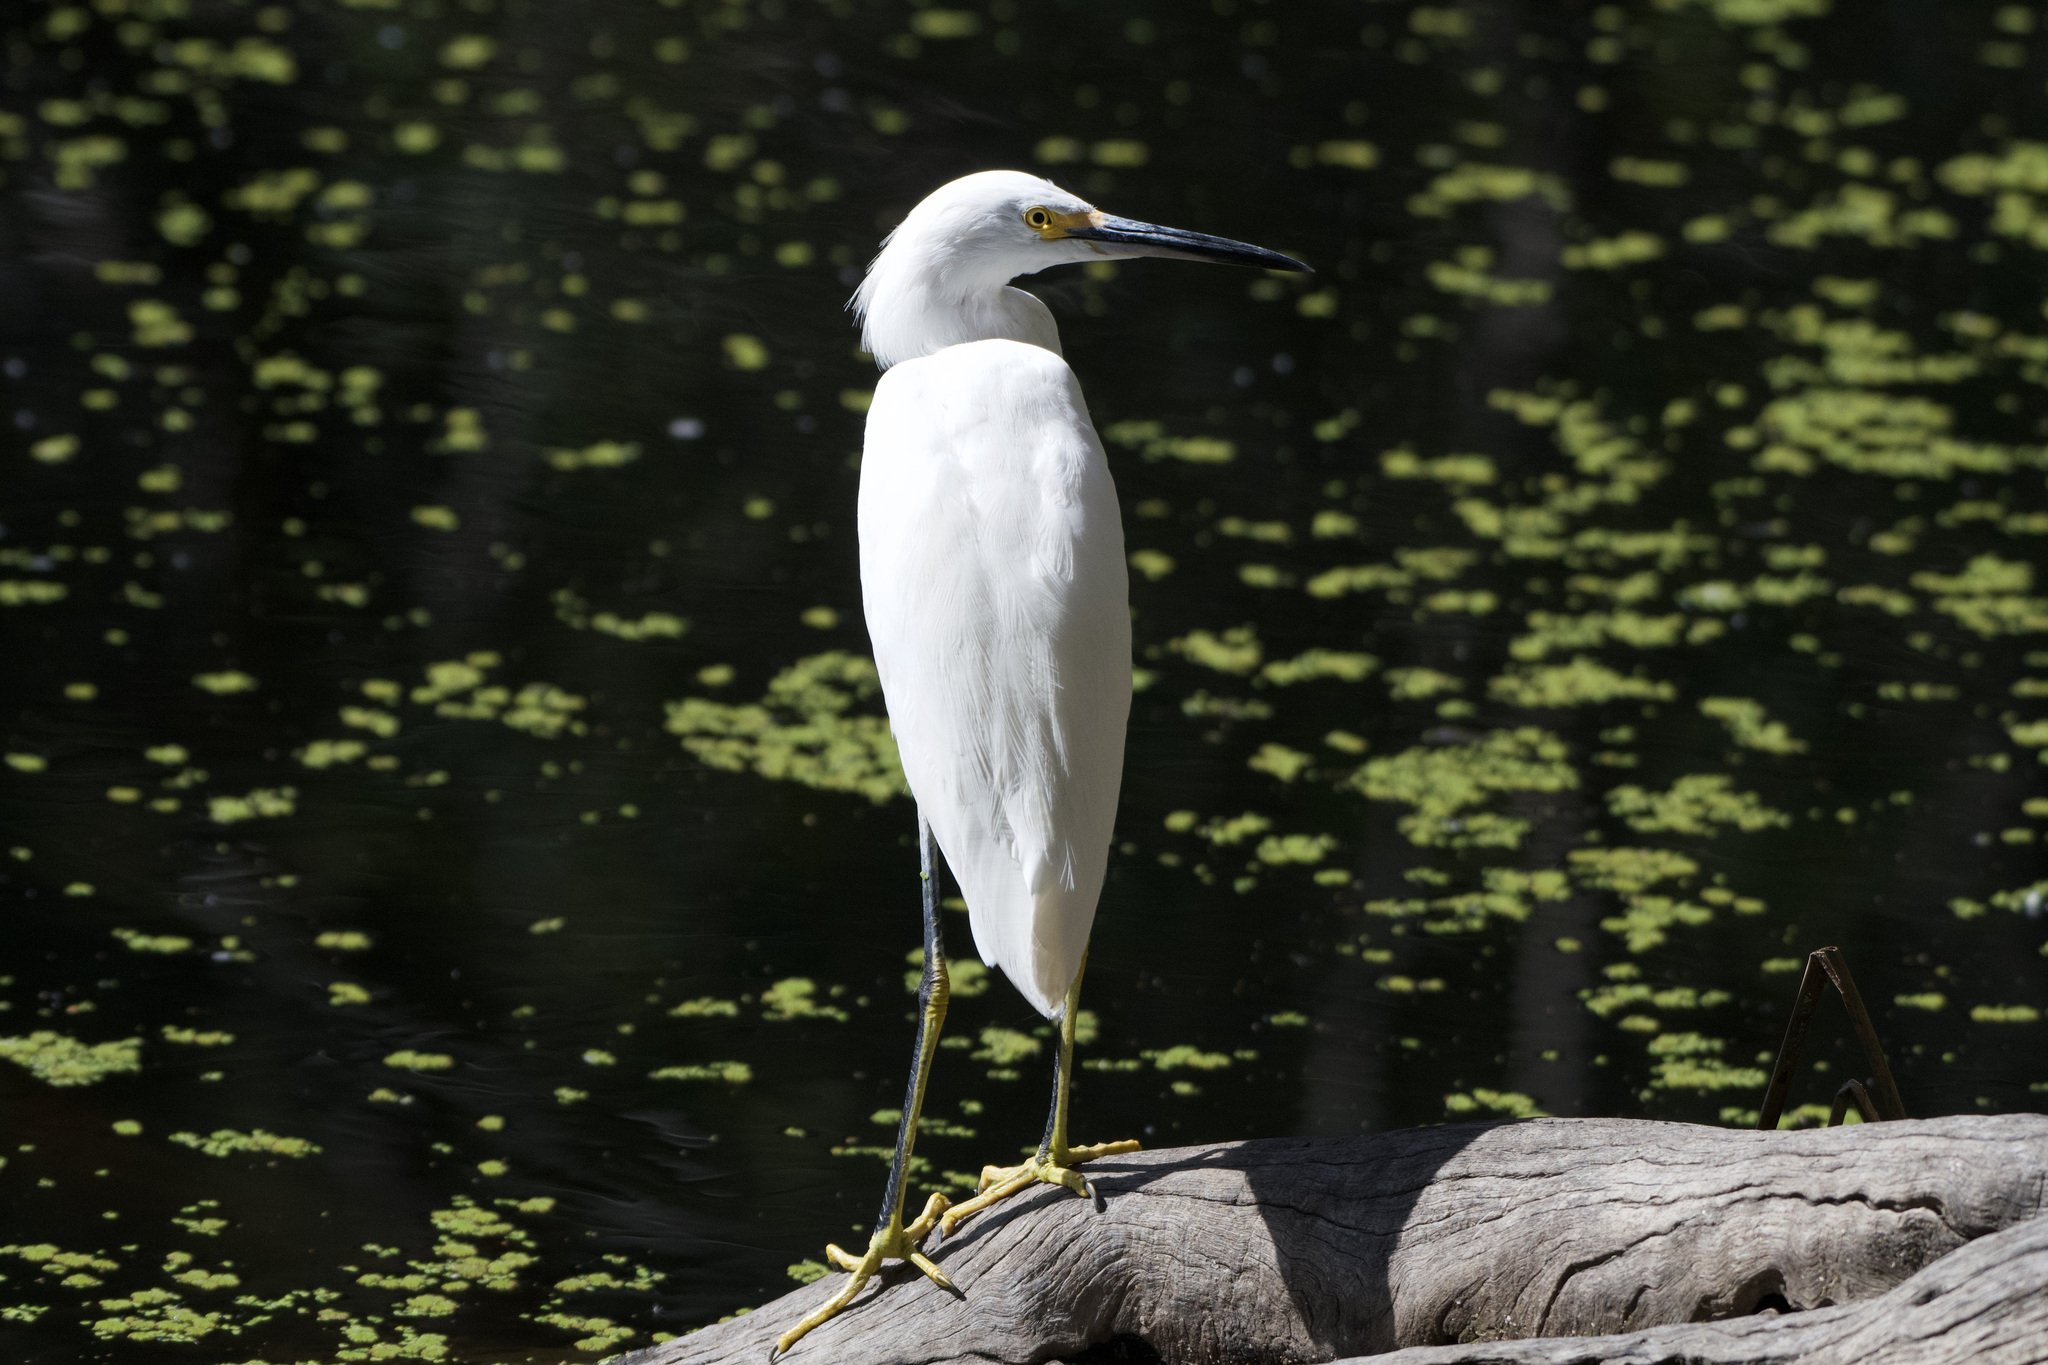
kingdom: Animalia
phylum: Chordata
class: Aves
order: Pelecaniformes
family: Ardeidae
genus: Egretta
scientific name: Egretta thula
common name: Snowy egret
